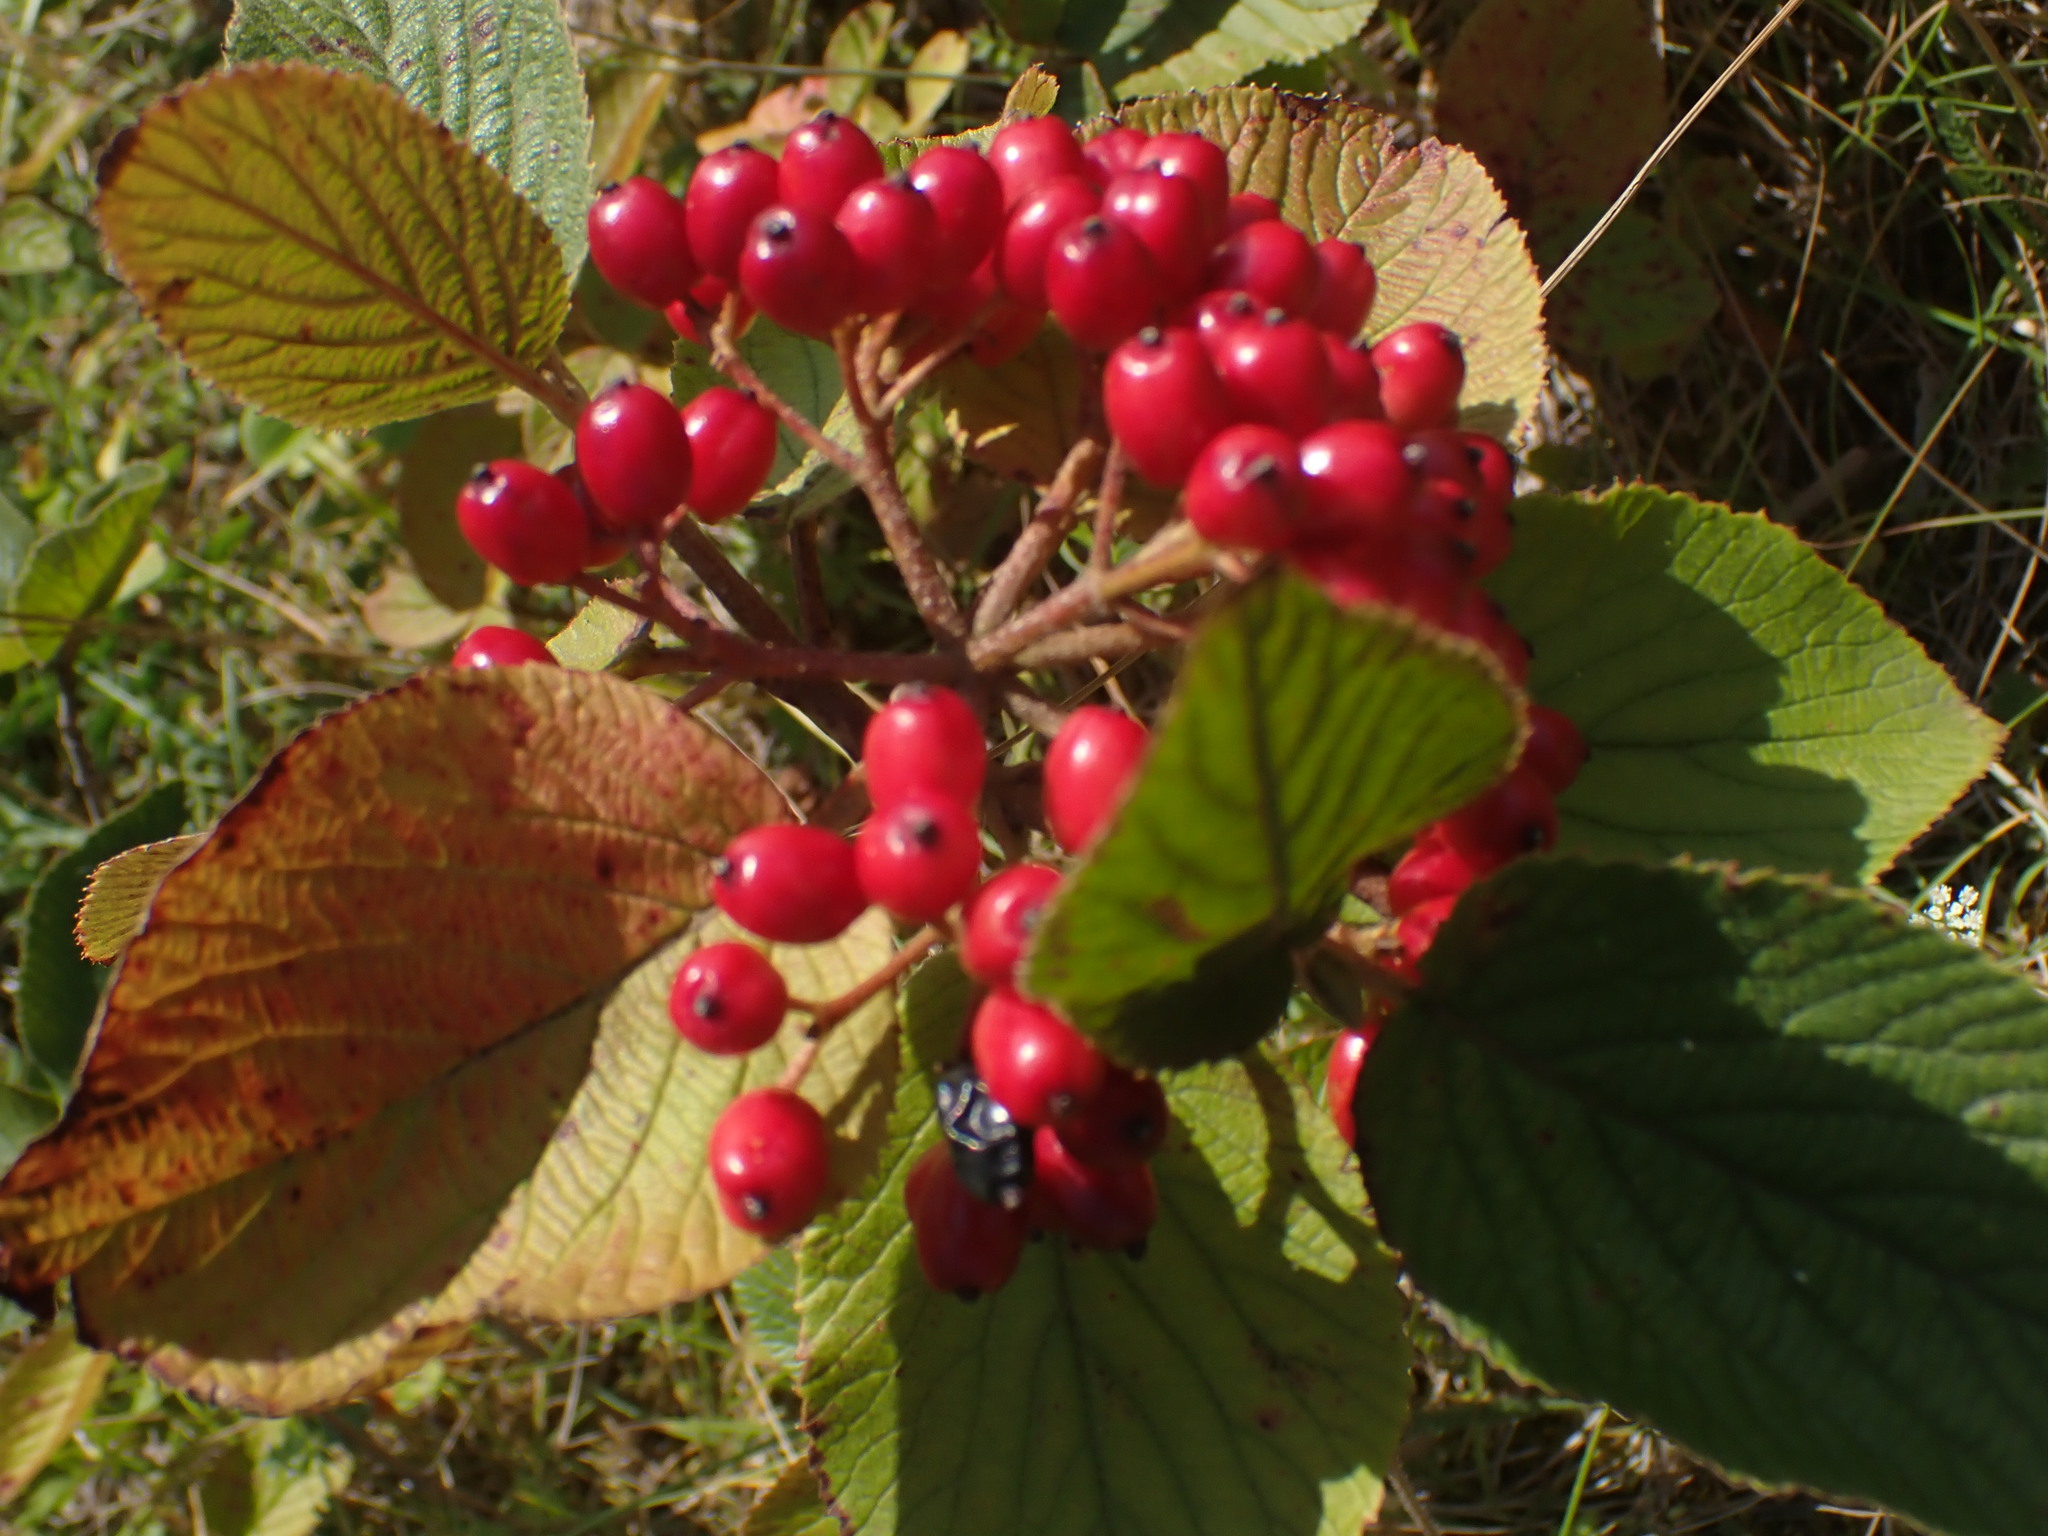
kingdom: Plantae
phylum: Tracheophyta
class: Magnoliopsida
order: Dipsacales
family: Viburnaceae
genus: Viburnum
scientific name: Viburnum lantana
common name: Wayfaring tree
